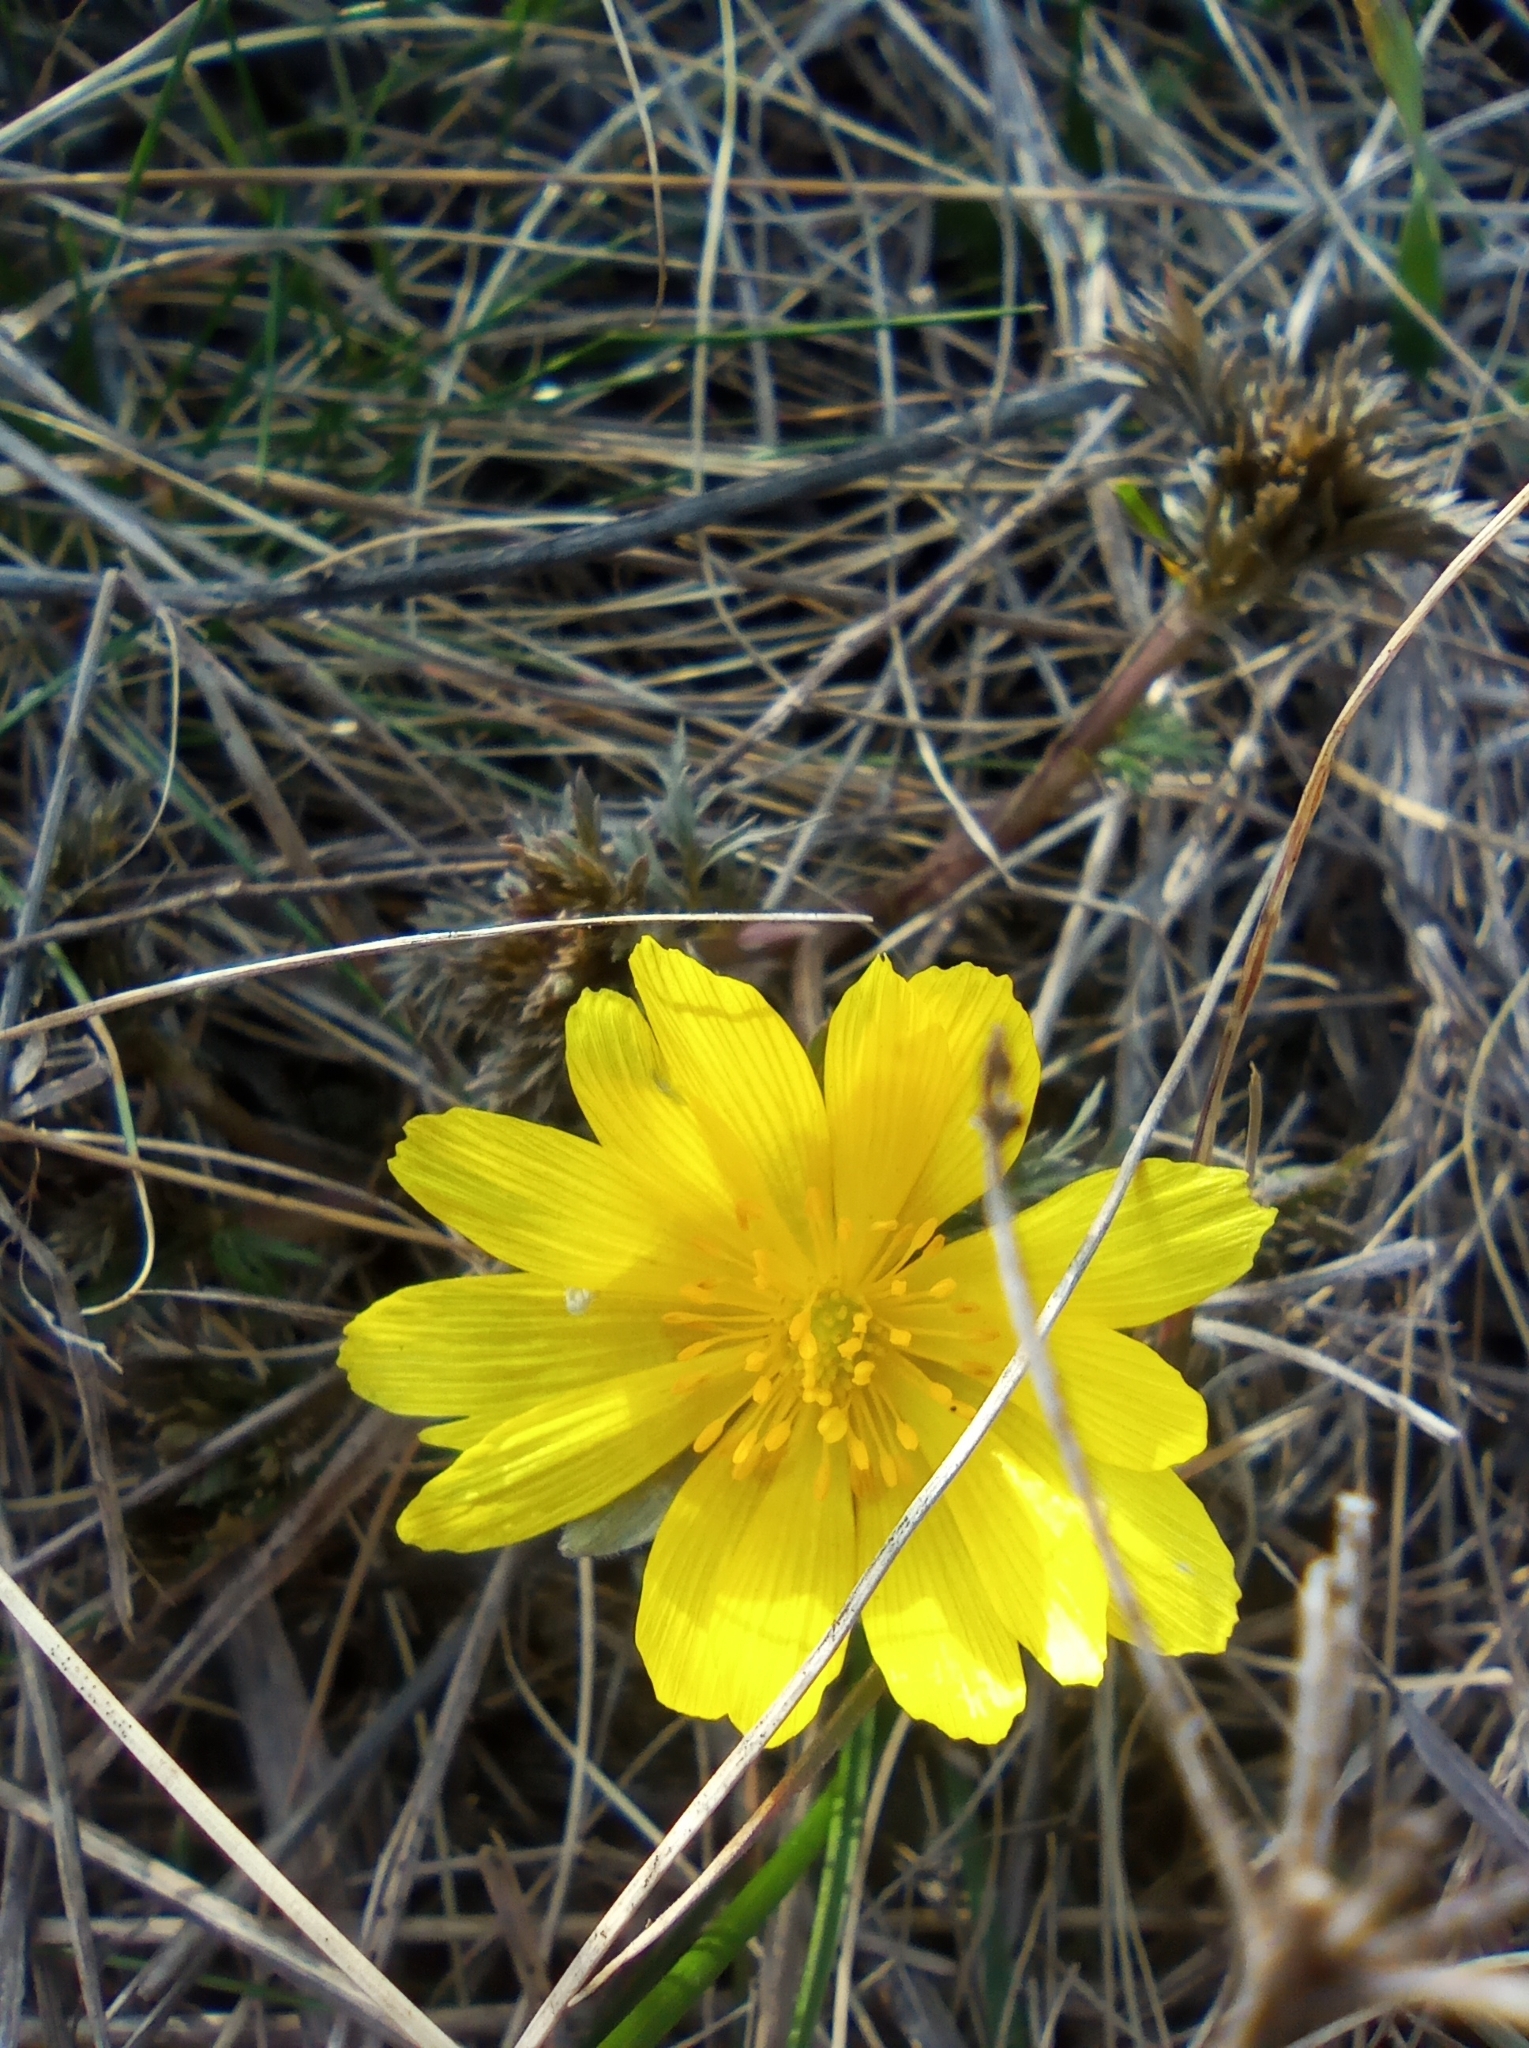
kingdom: Plantae
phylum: Tracheophyta
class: Magnoliopsida
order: Ranunculales
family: Ranunculaceae
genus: Adonis
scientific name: Adonis volgensis
